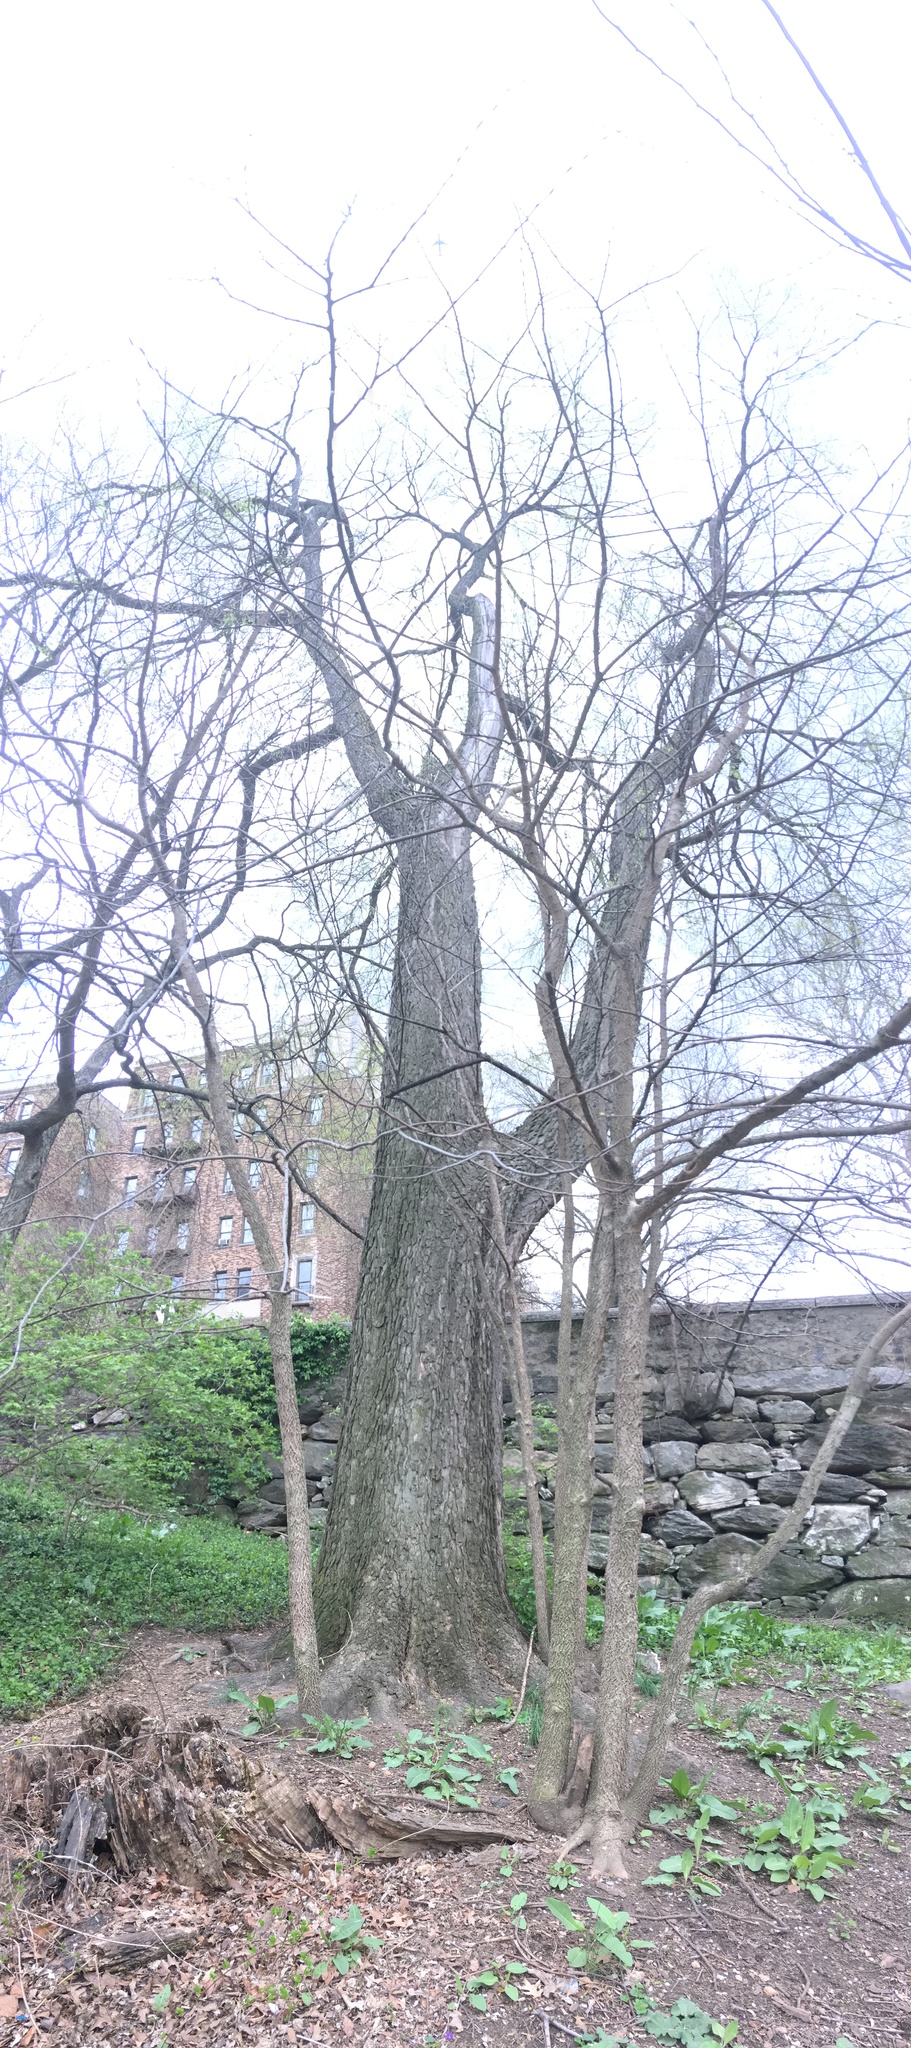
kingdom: Plantae
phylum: Tracheophyta
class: Magnoliopsida
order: Rosales
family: Cannabaceae
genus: Celtis
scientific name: Celtis occidentalis
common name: Common hackberry
